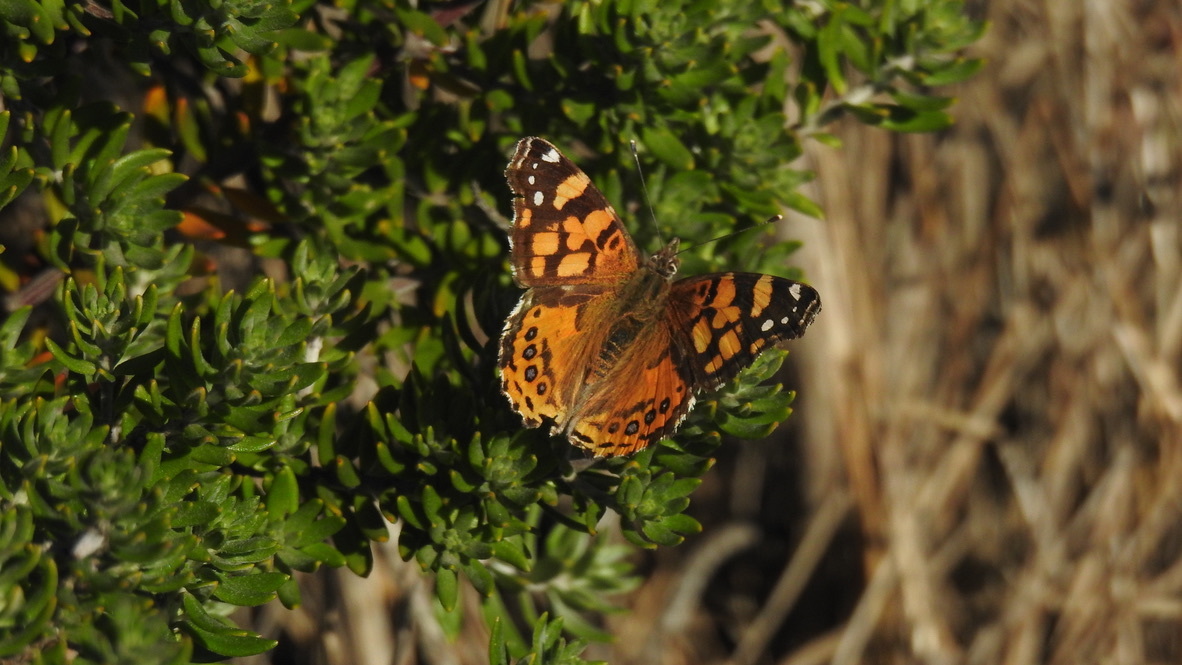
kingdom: Animalia
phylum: Arthropoda
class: Insecta
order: Lepidoptera
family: Nymphalidae
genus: Vanessa
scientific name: Vanessa annabella
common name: West coast lady
